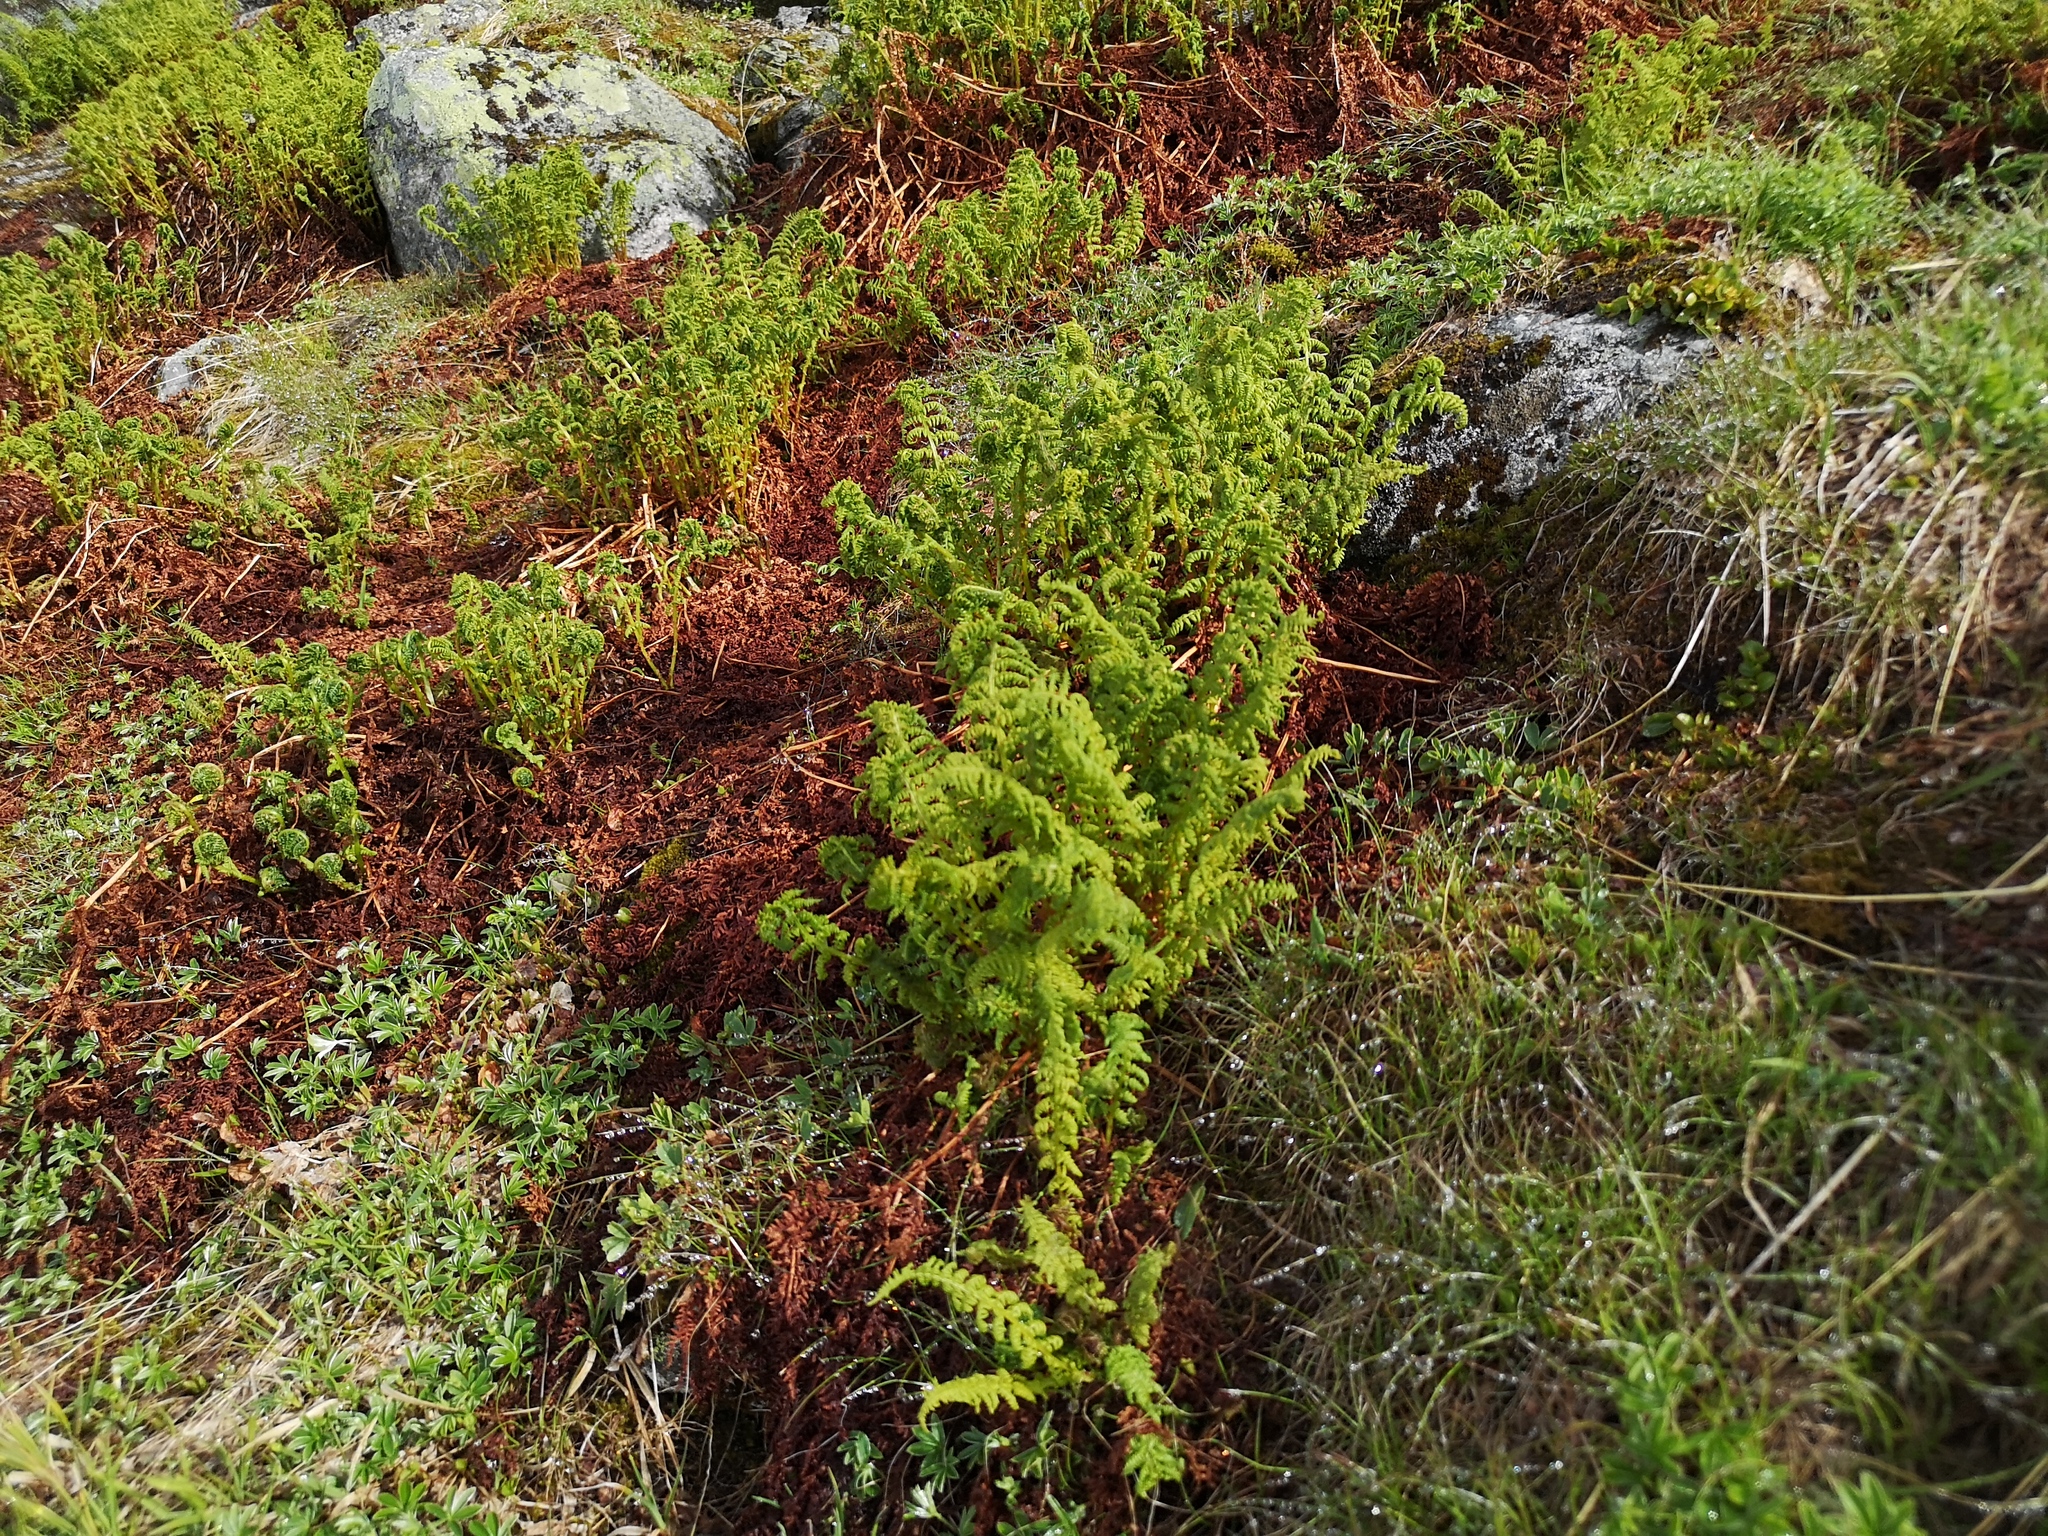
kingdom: Plantae
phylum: Tracheophyta
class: Polypodiopsida
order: Polypodiales
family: Athyriaceae
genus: Pseudathyrium
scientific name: Pseudathyrium alpestre
